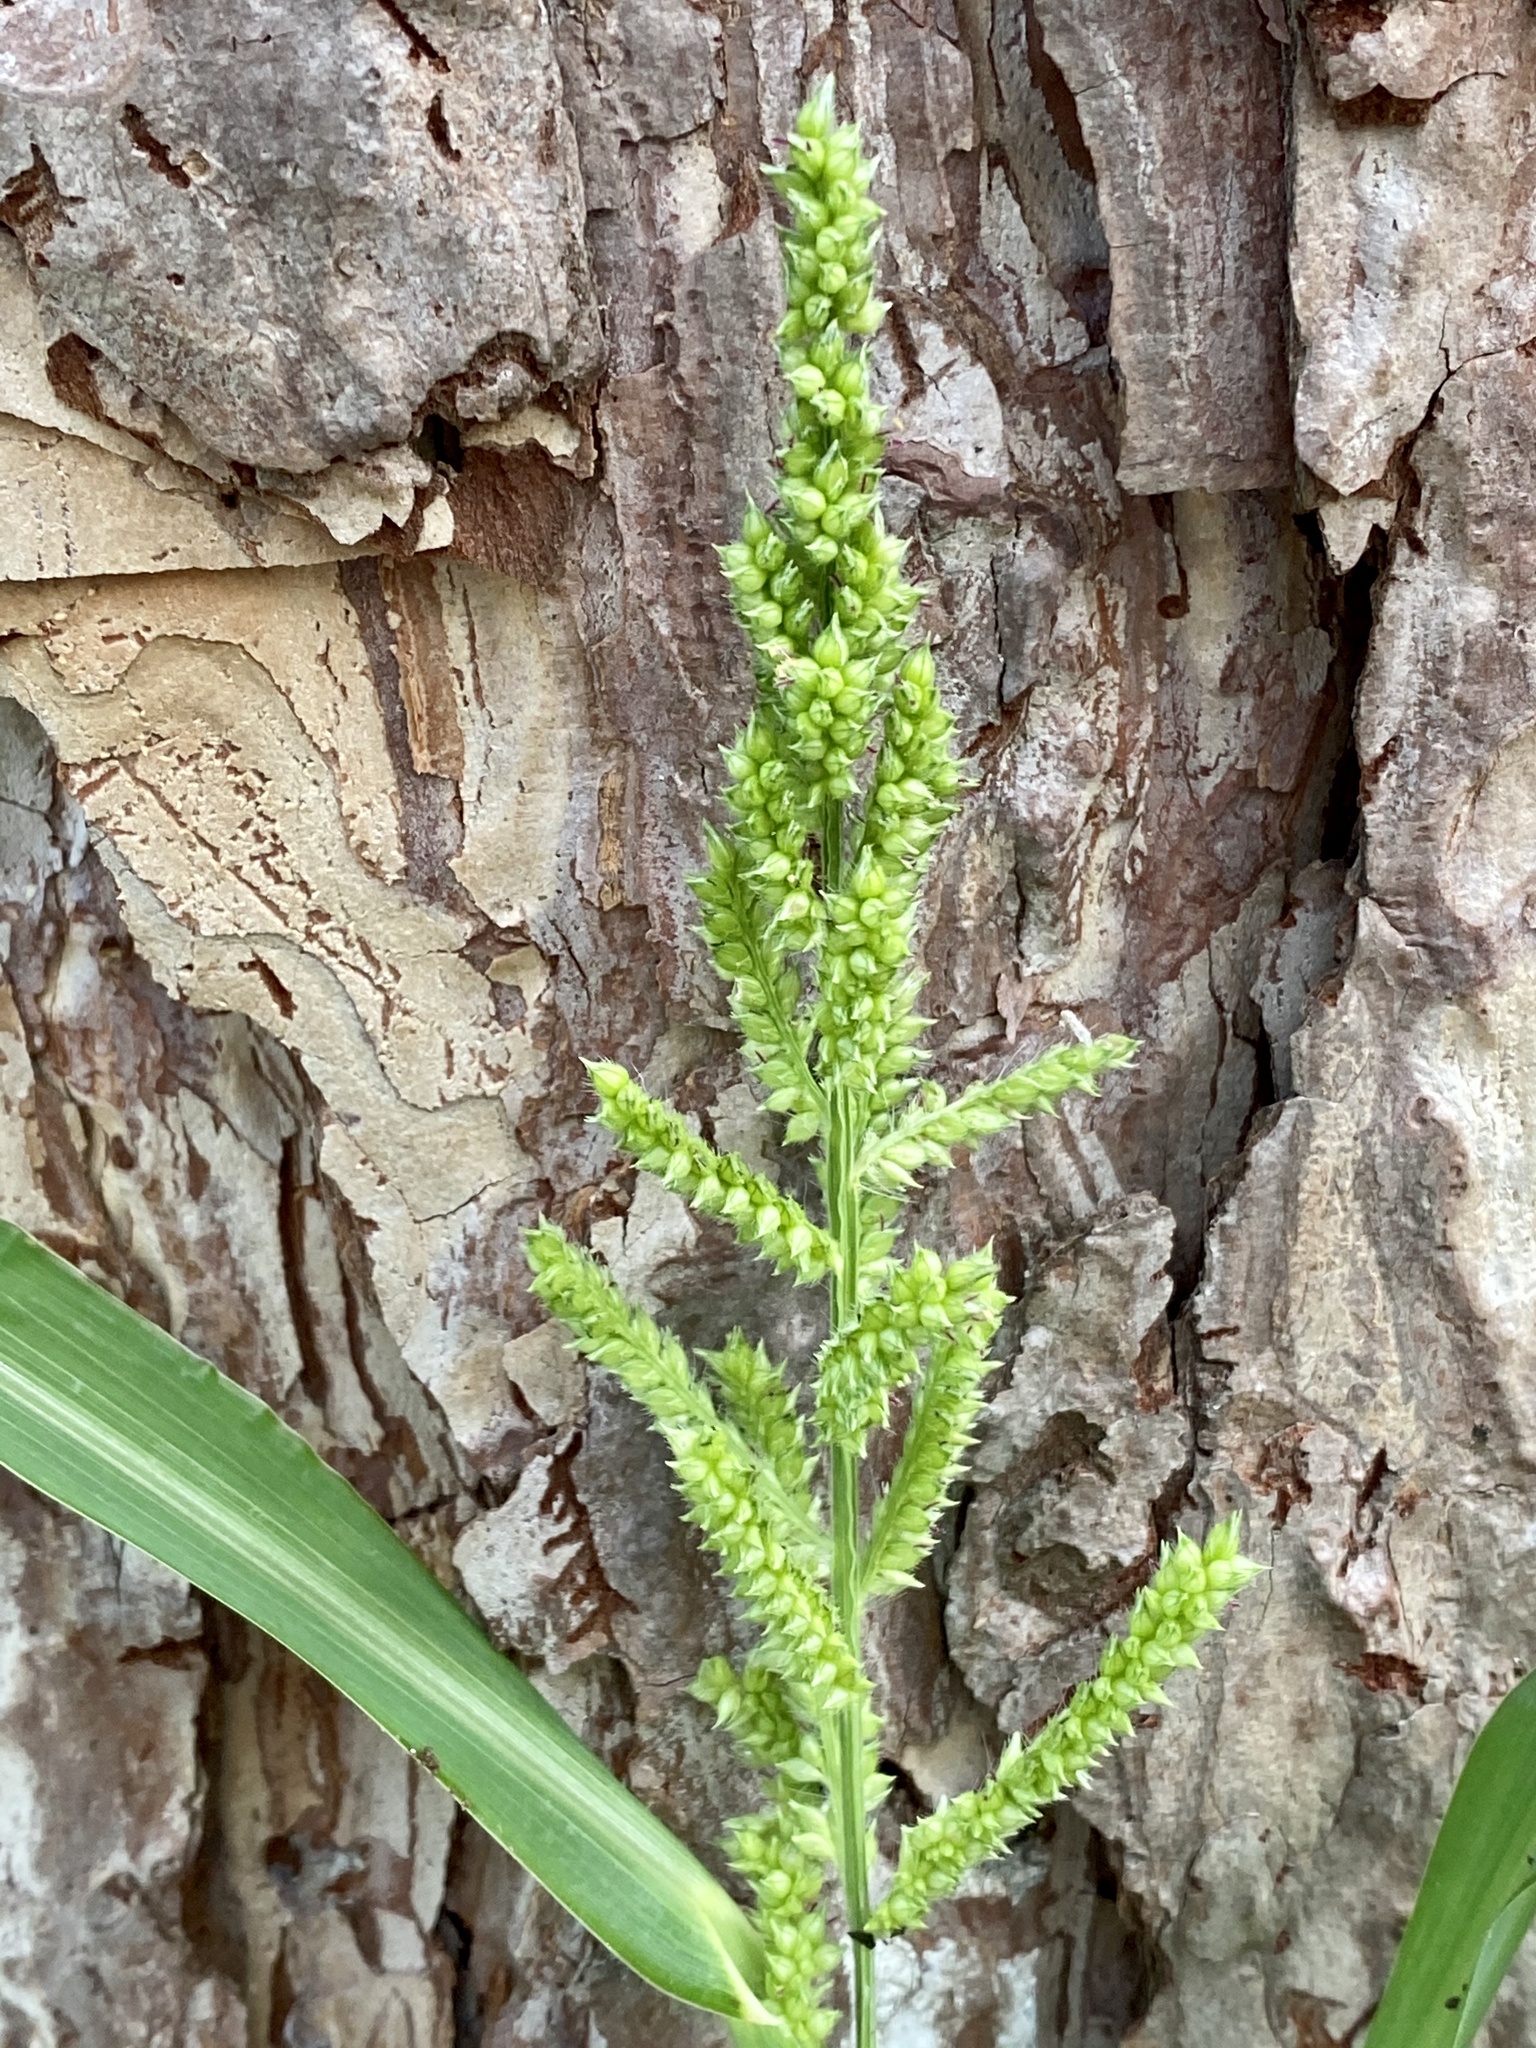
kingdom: Plantae
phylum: Tracheophyta
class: Liliopsida
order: Poales
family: Poaceae
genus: Echinochloa
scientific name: Echinochloa crus-galli
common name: Cockspur
